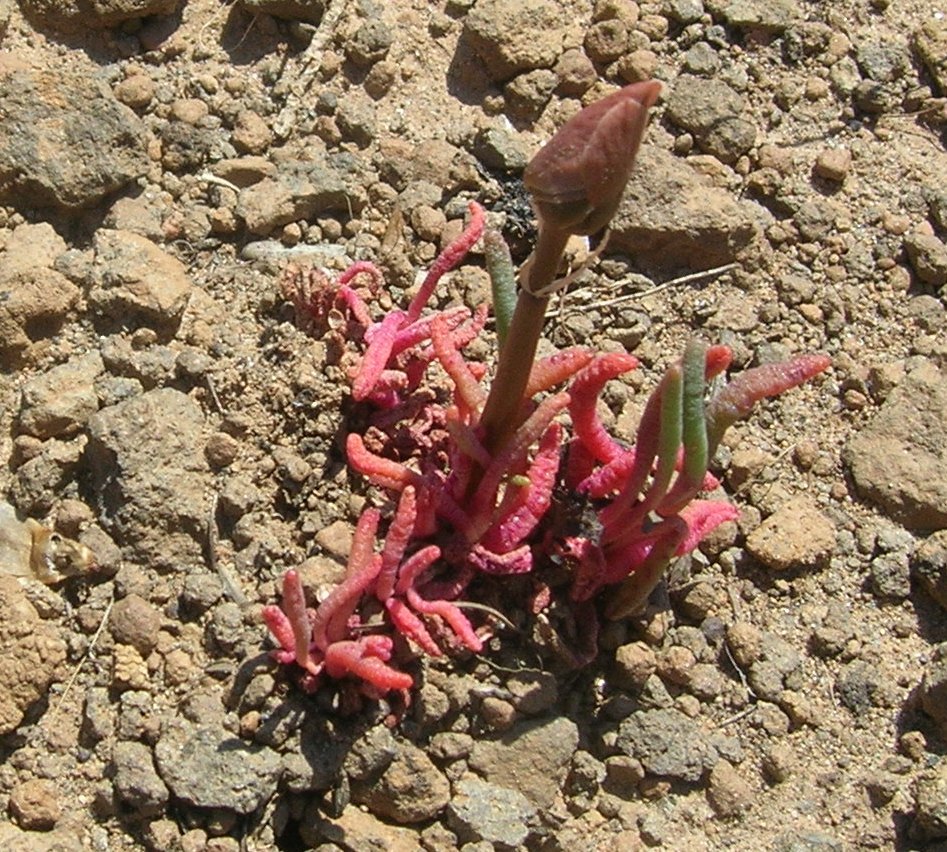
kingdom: Plantae
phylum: Tracheophyta
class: Magnoliopsida
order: Caryophyllales
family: Montiaceae
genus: Lewisia
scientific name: Lewisia rediviva
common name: Bitter-root
